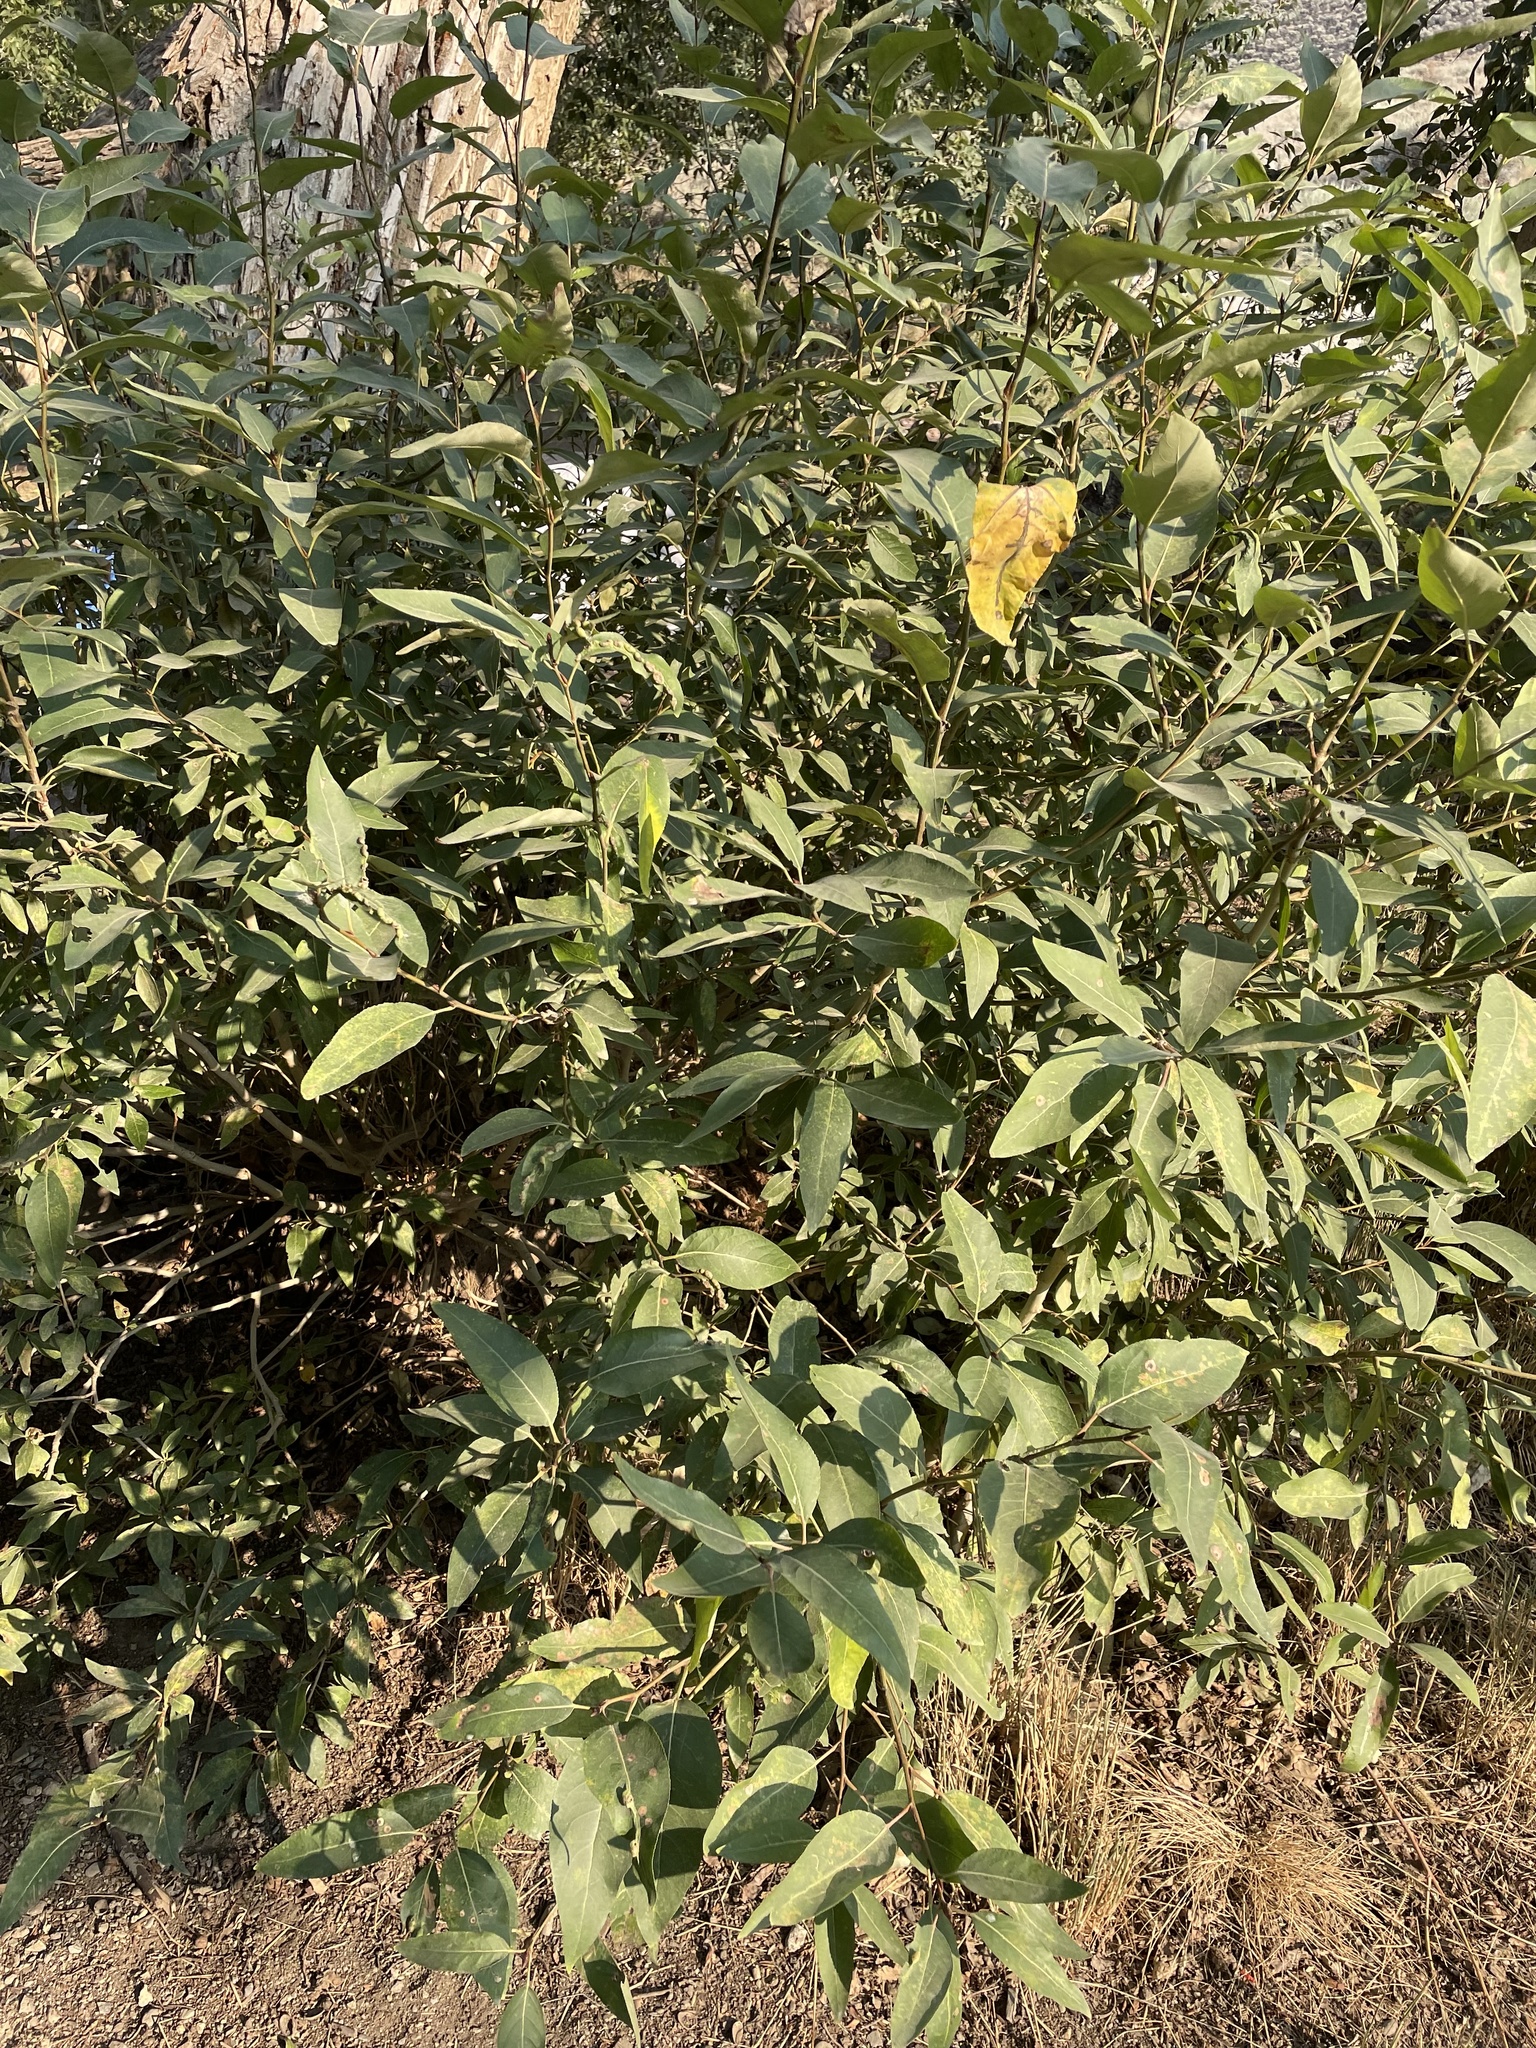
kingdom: Animalia
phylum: Arthropoda
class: Insecta
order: Hemiptera
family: Aphididae
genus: Thecabius
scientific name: Thecabius populimonilis
